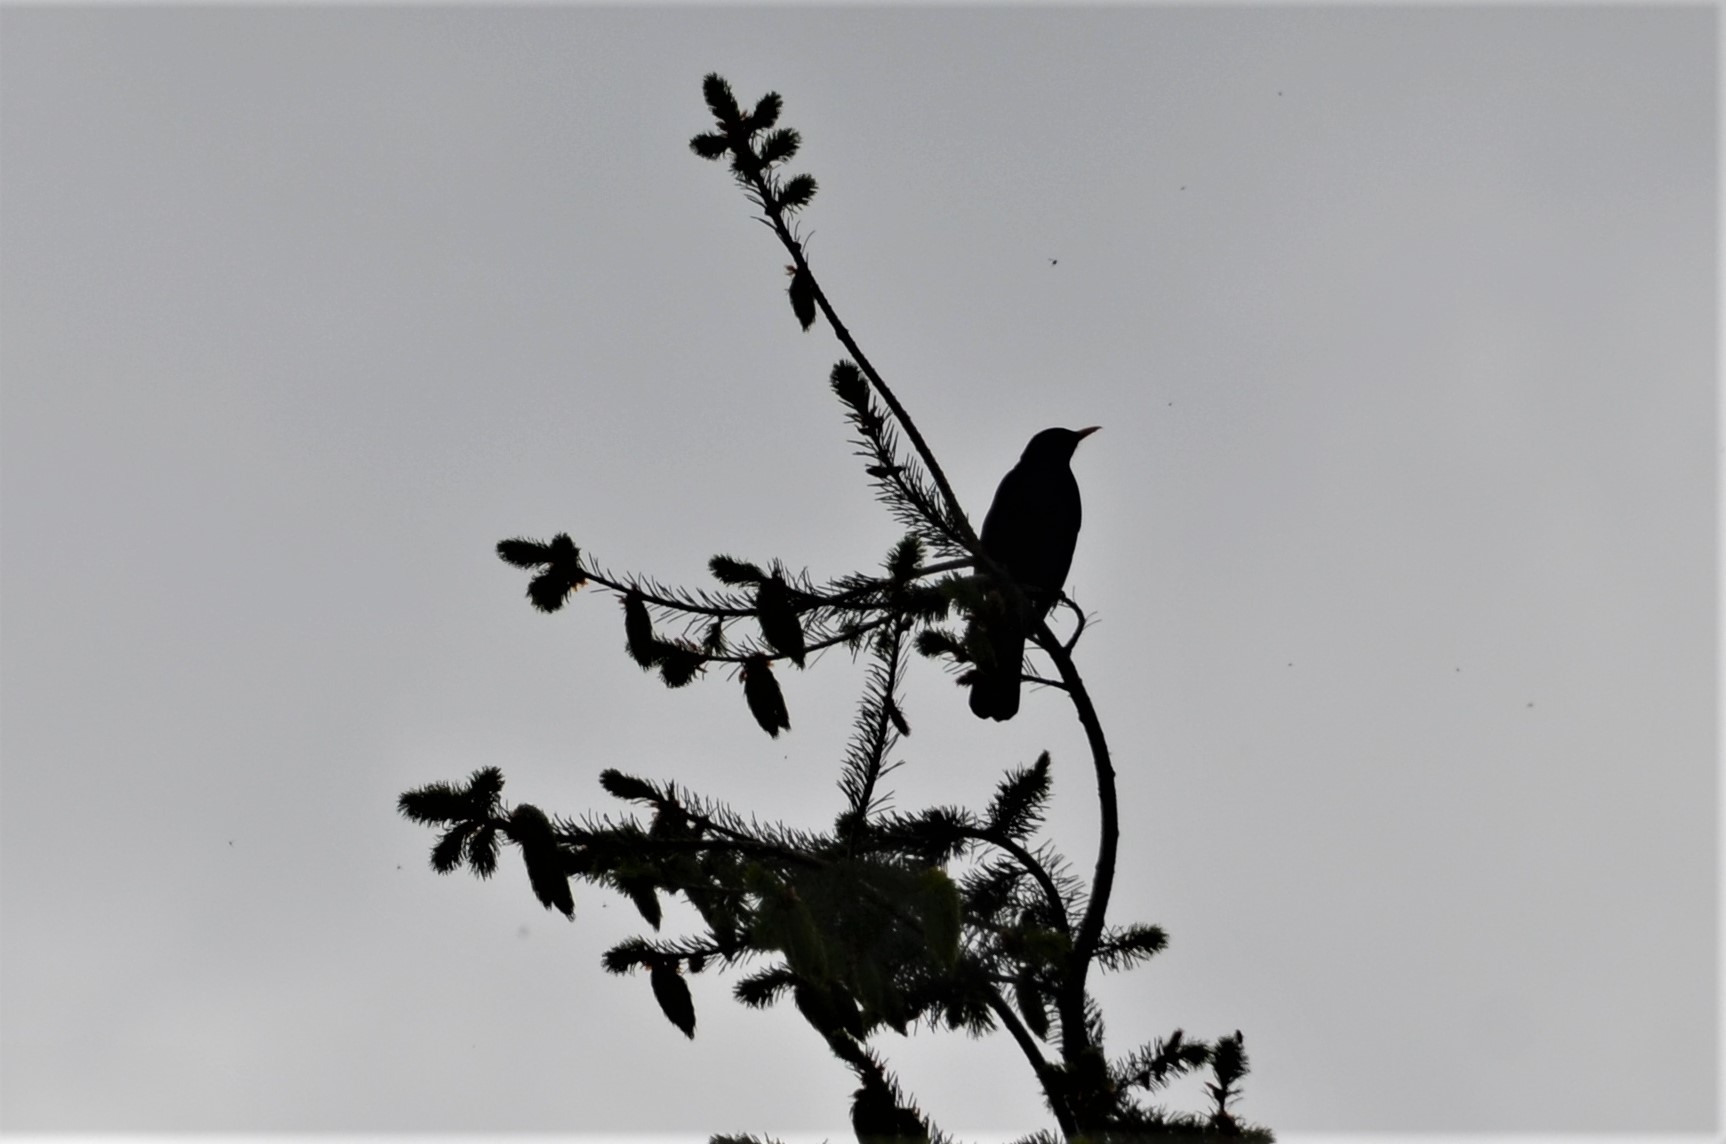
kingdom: Animalia
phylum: Chordata
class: Aves
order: Passeriformes
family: Turdidae
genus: Turdus
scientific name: Turdus merula
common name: Common blackbird
